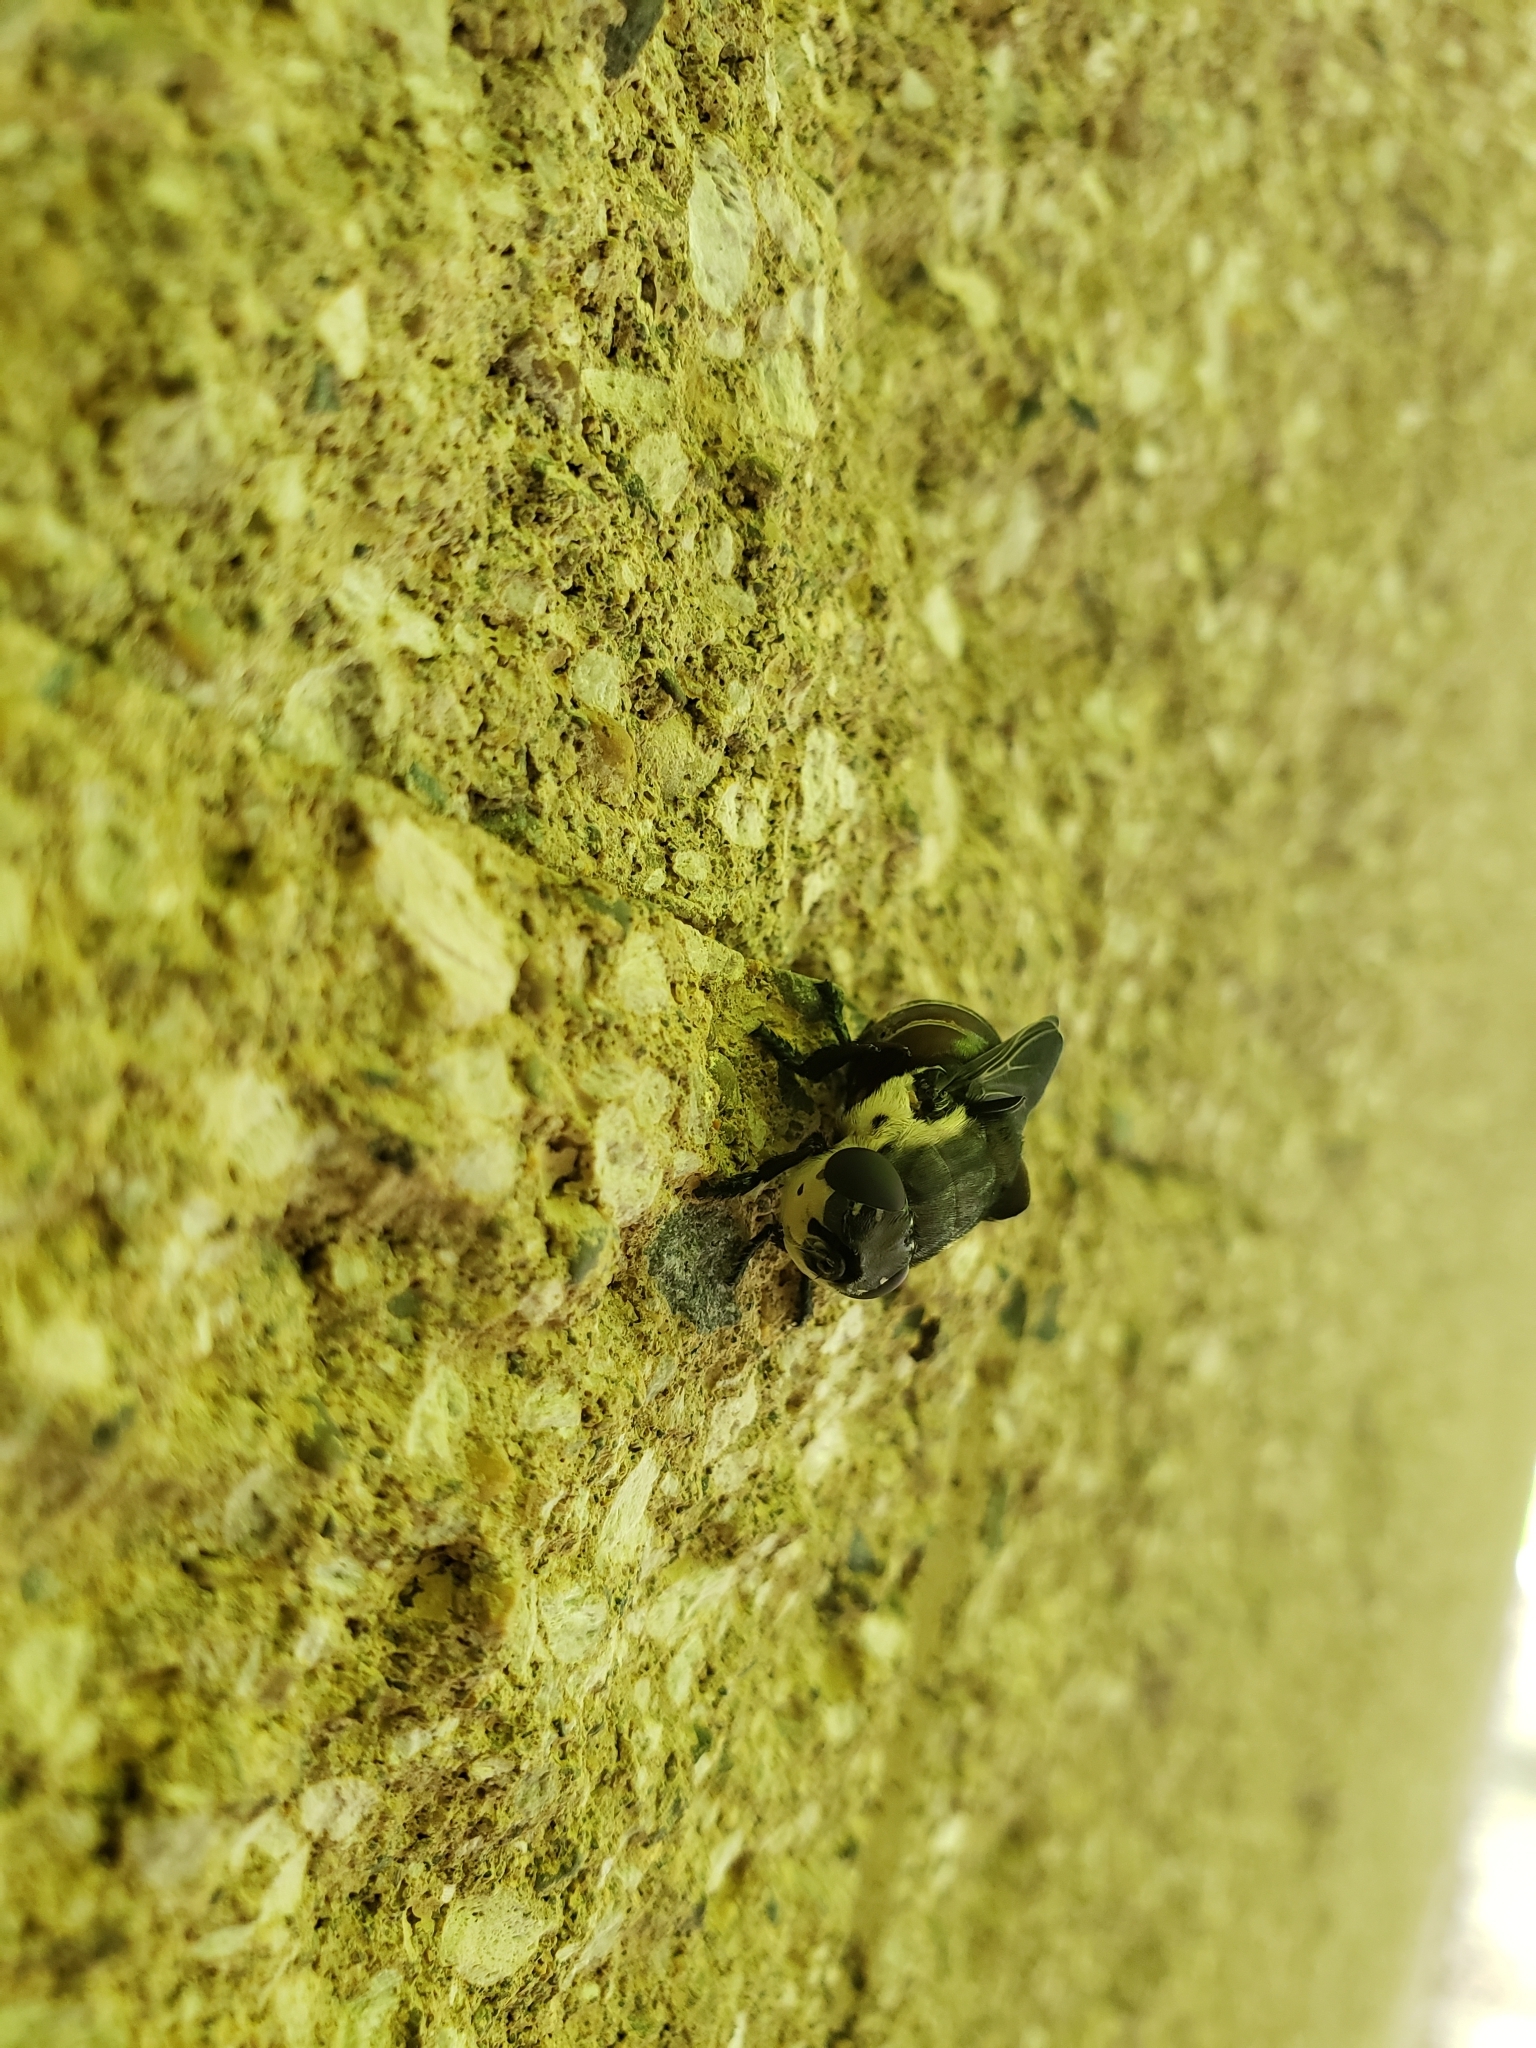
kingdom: Animalia
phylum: Arthropoda
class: Insecta
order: Diptera
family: Oestridae
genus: Cuterebra
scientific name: Cuterebra fontinella
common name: Mouse bot fly
